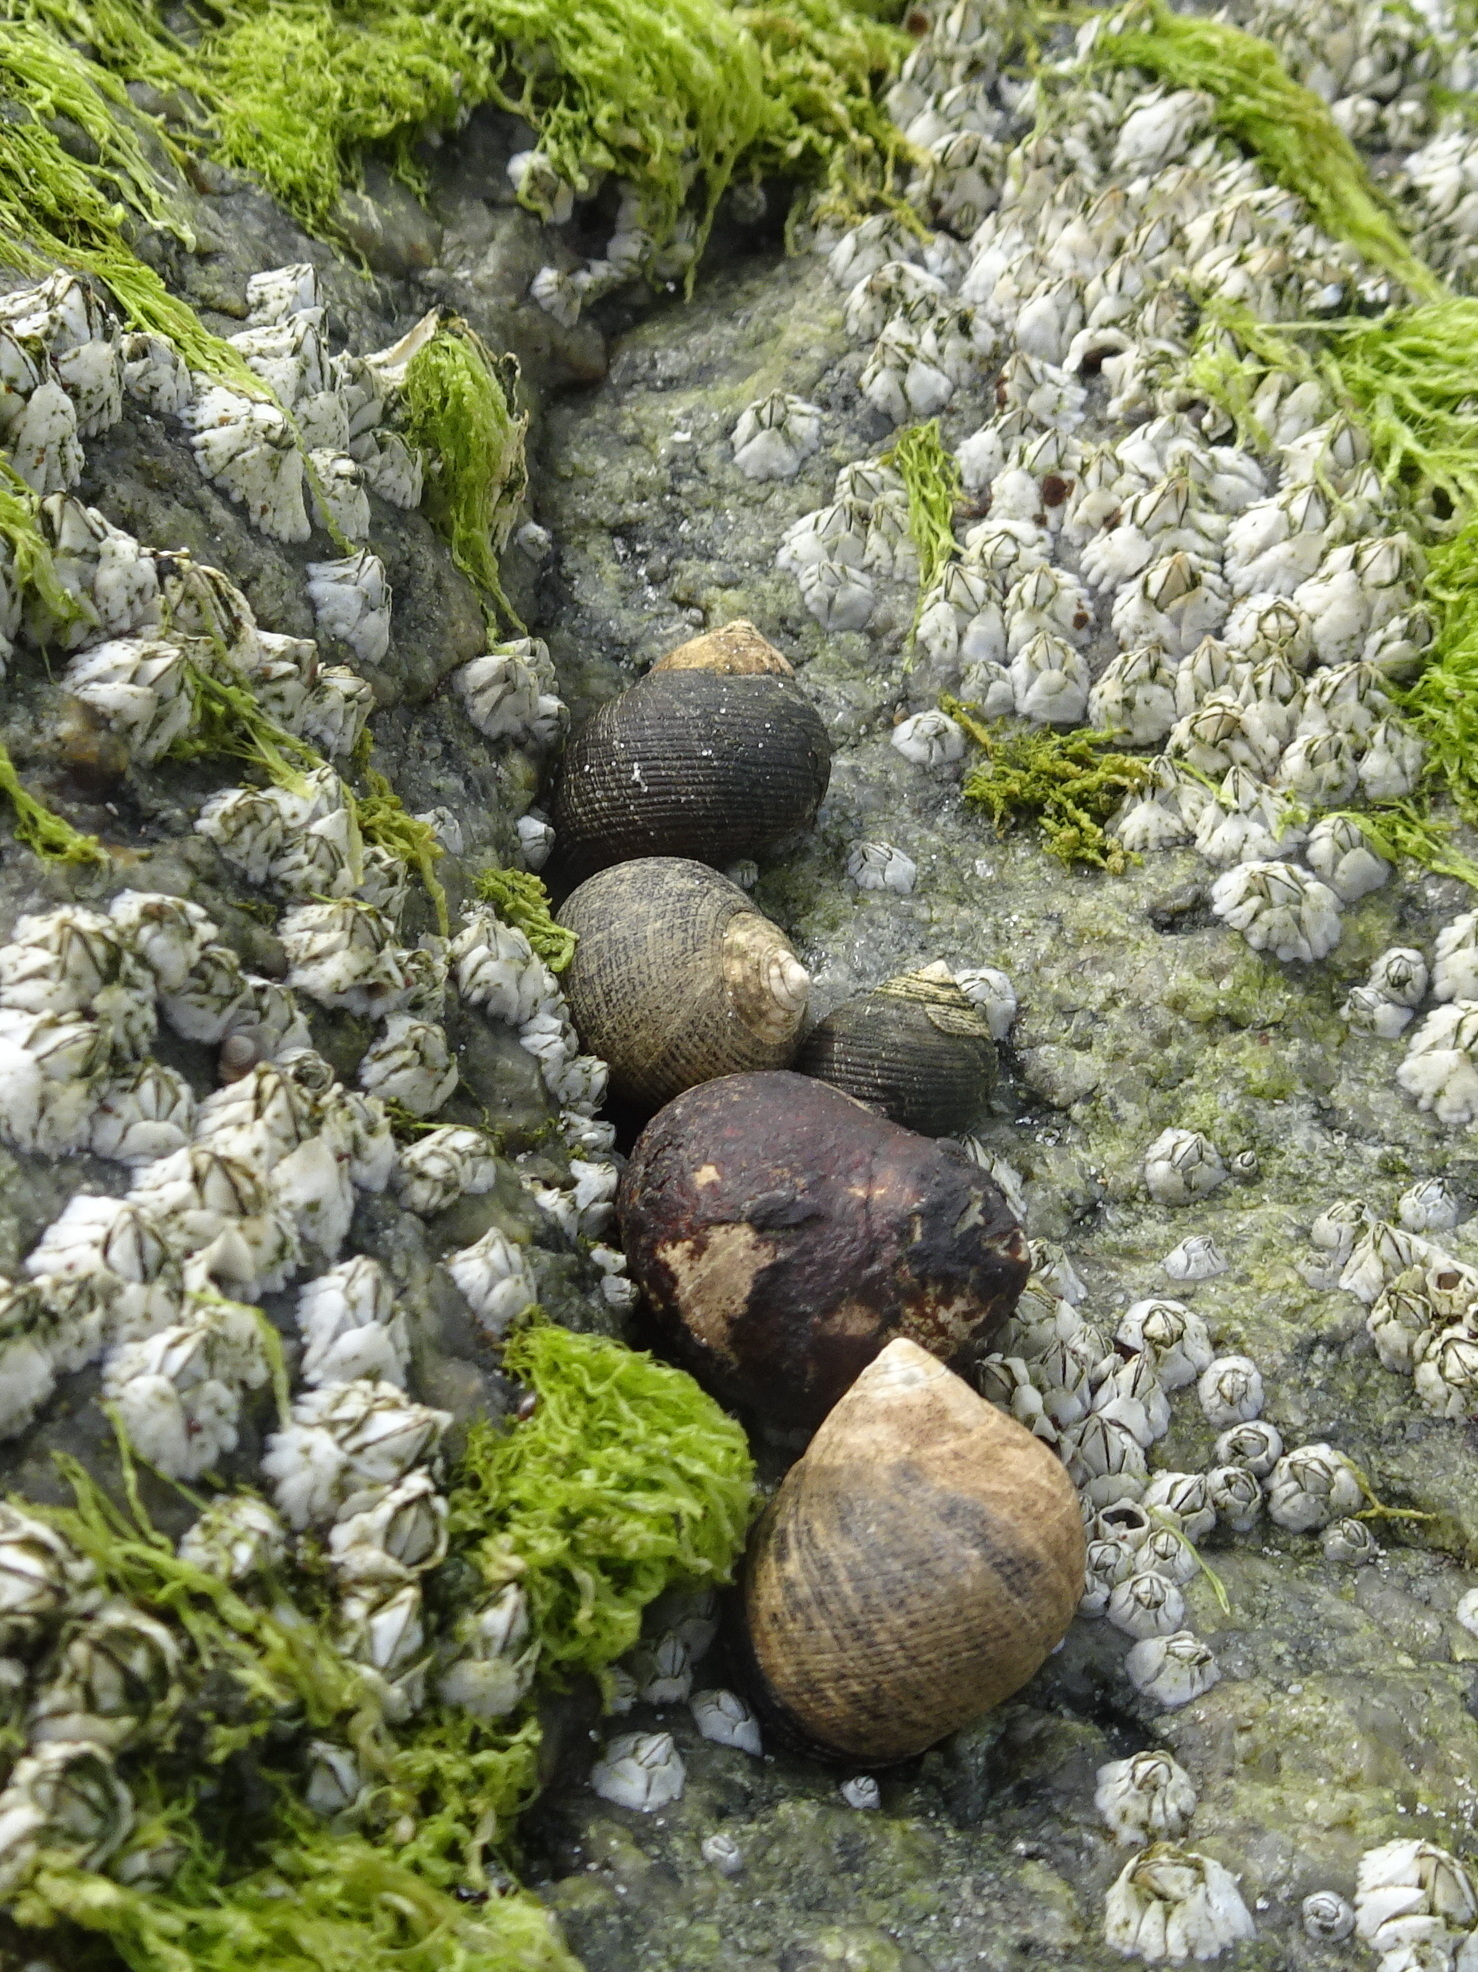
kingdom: Animalia
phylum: Mollusca
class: Gastropoda
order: Littorinimorpha
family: Littorinidae
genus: Littorina
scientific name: Littorina littorea
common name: Common periwinkle
